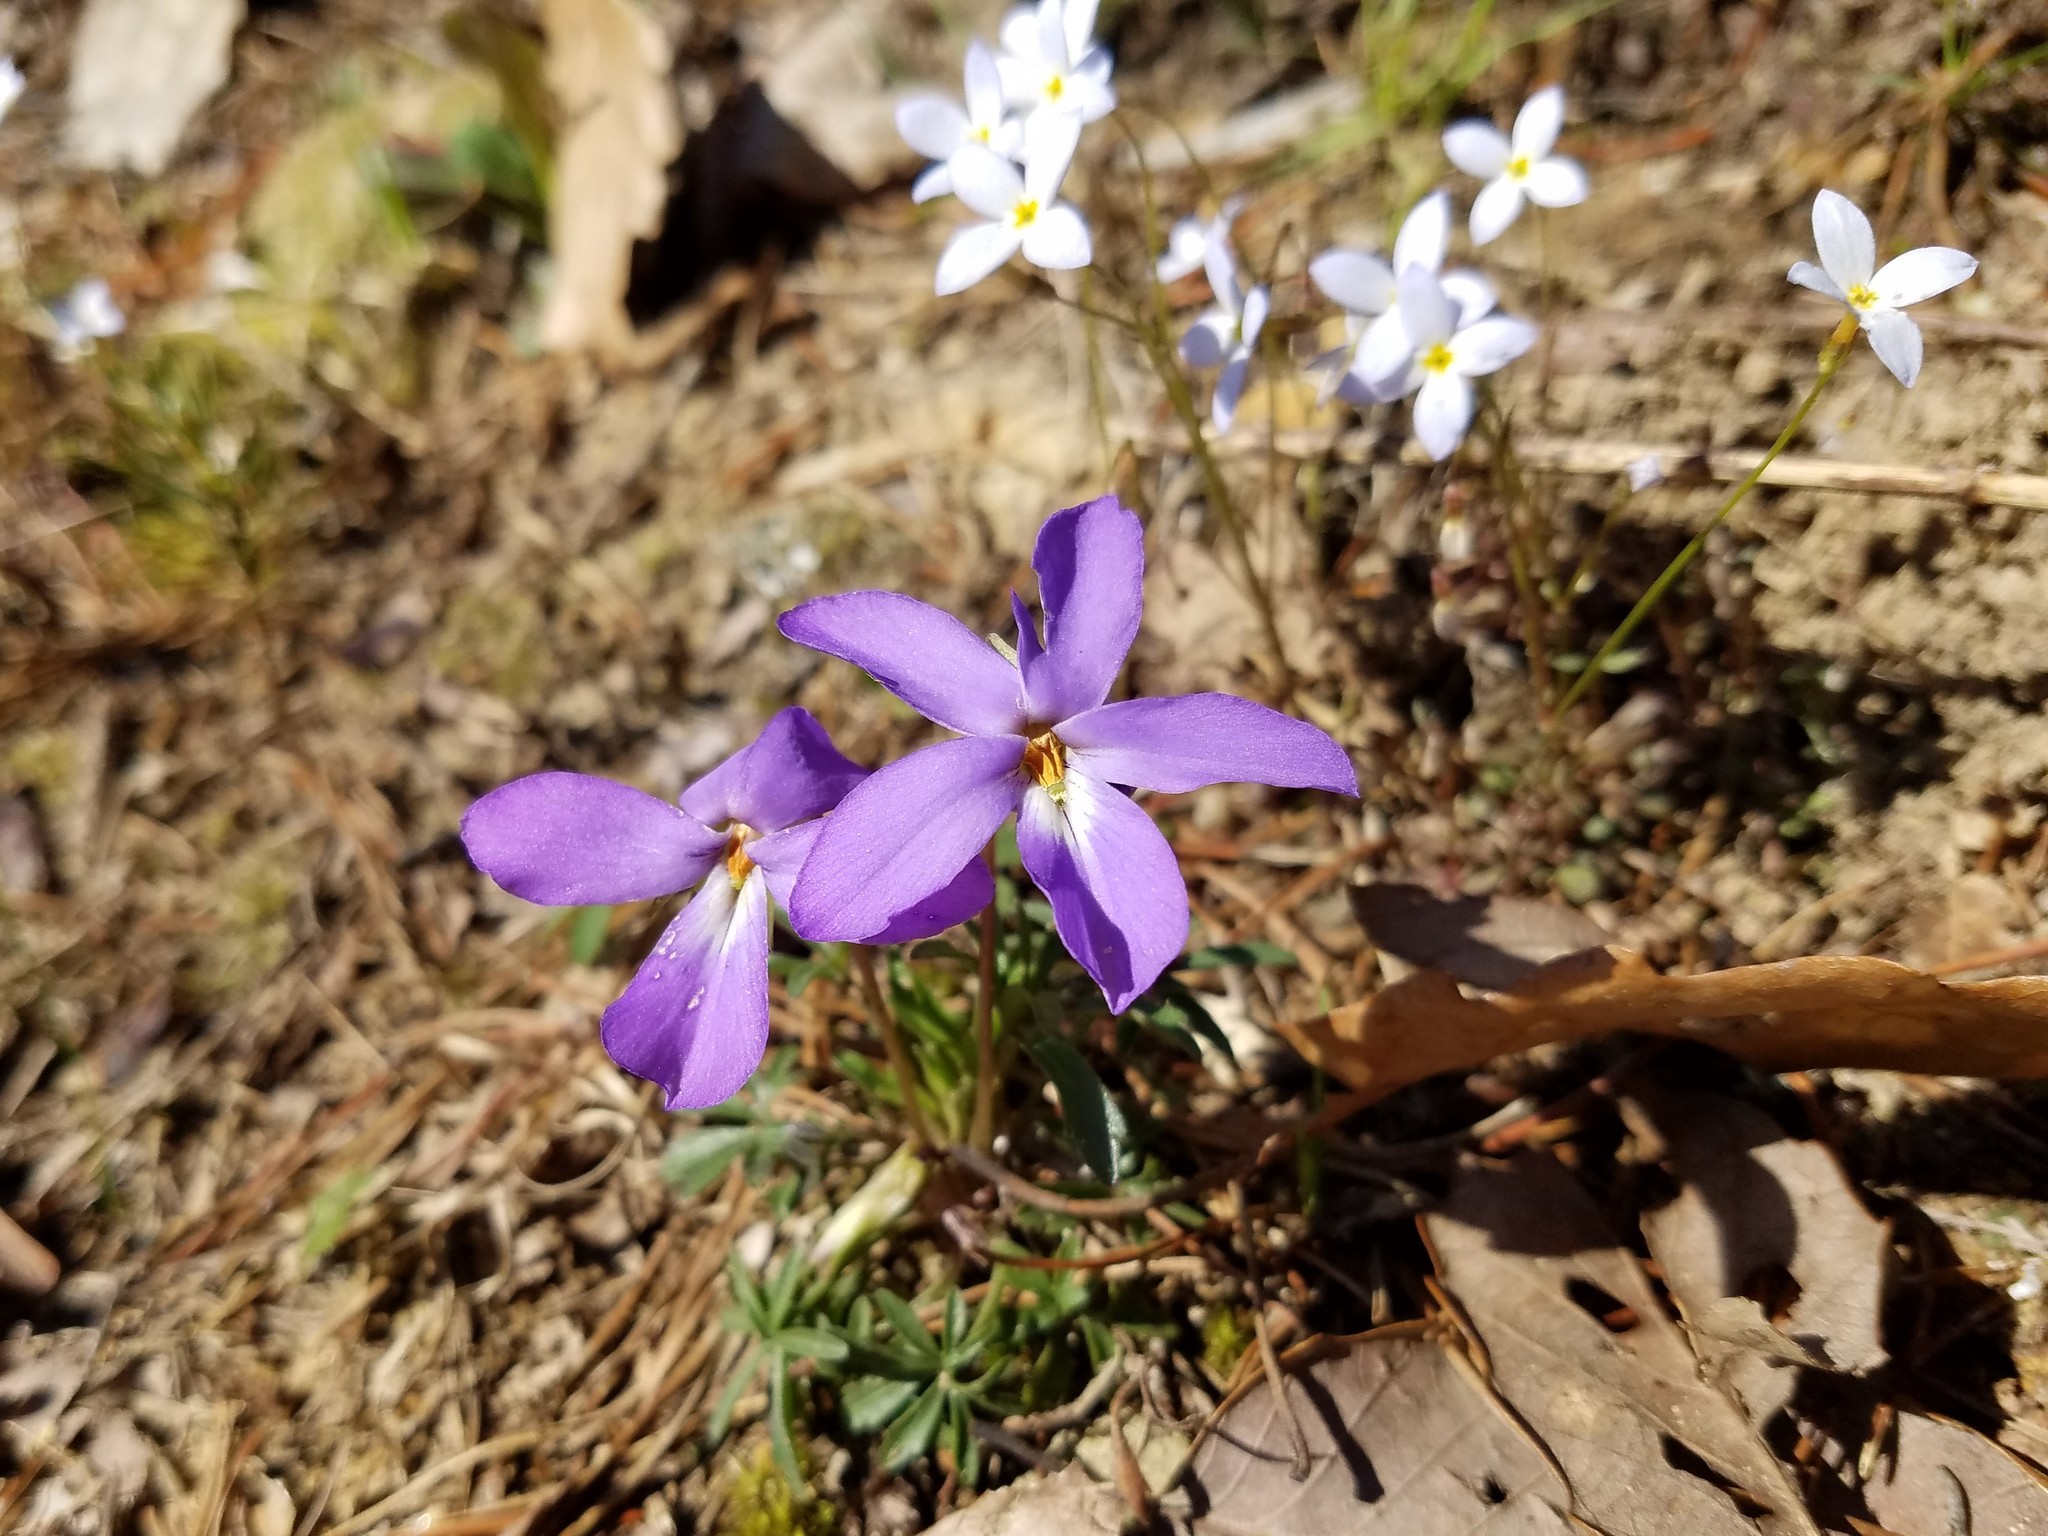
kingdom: Plantae
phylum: Tracheophyta
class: Magnoliopsida
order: Malpighiales
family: Violaceae
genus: Viola
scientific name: Viola pedata
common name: Pansy violet
